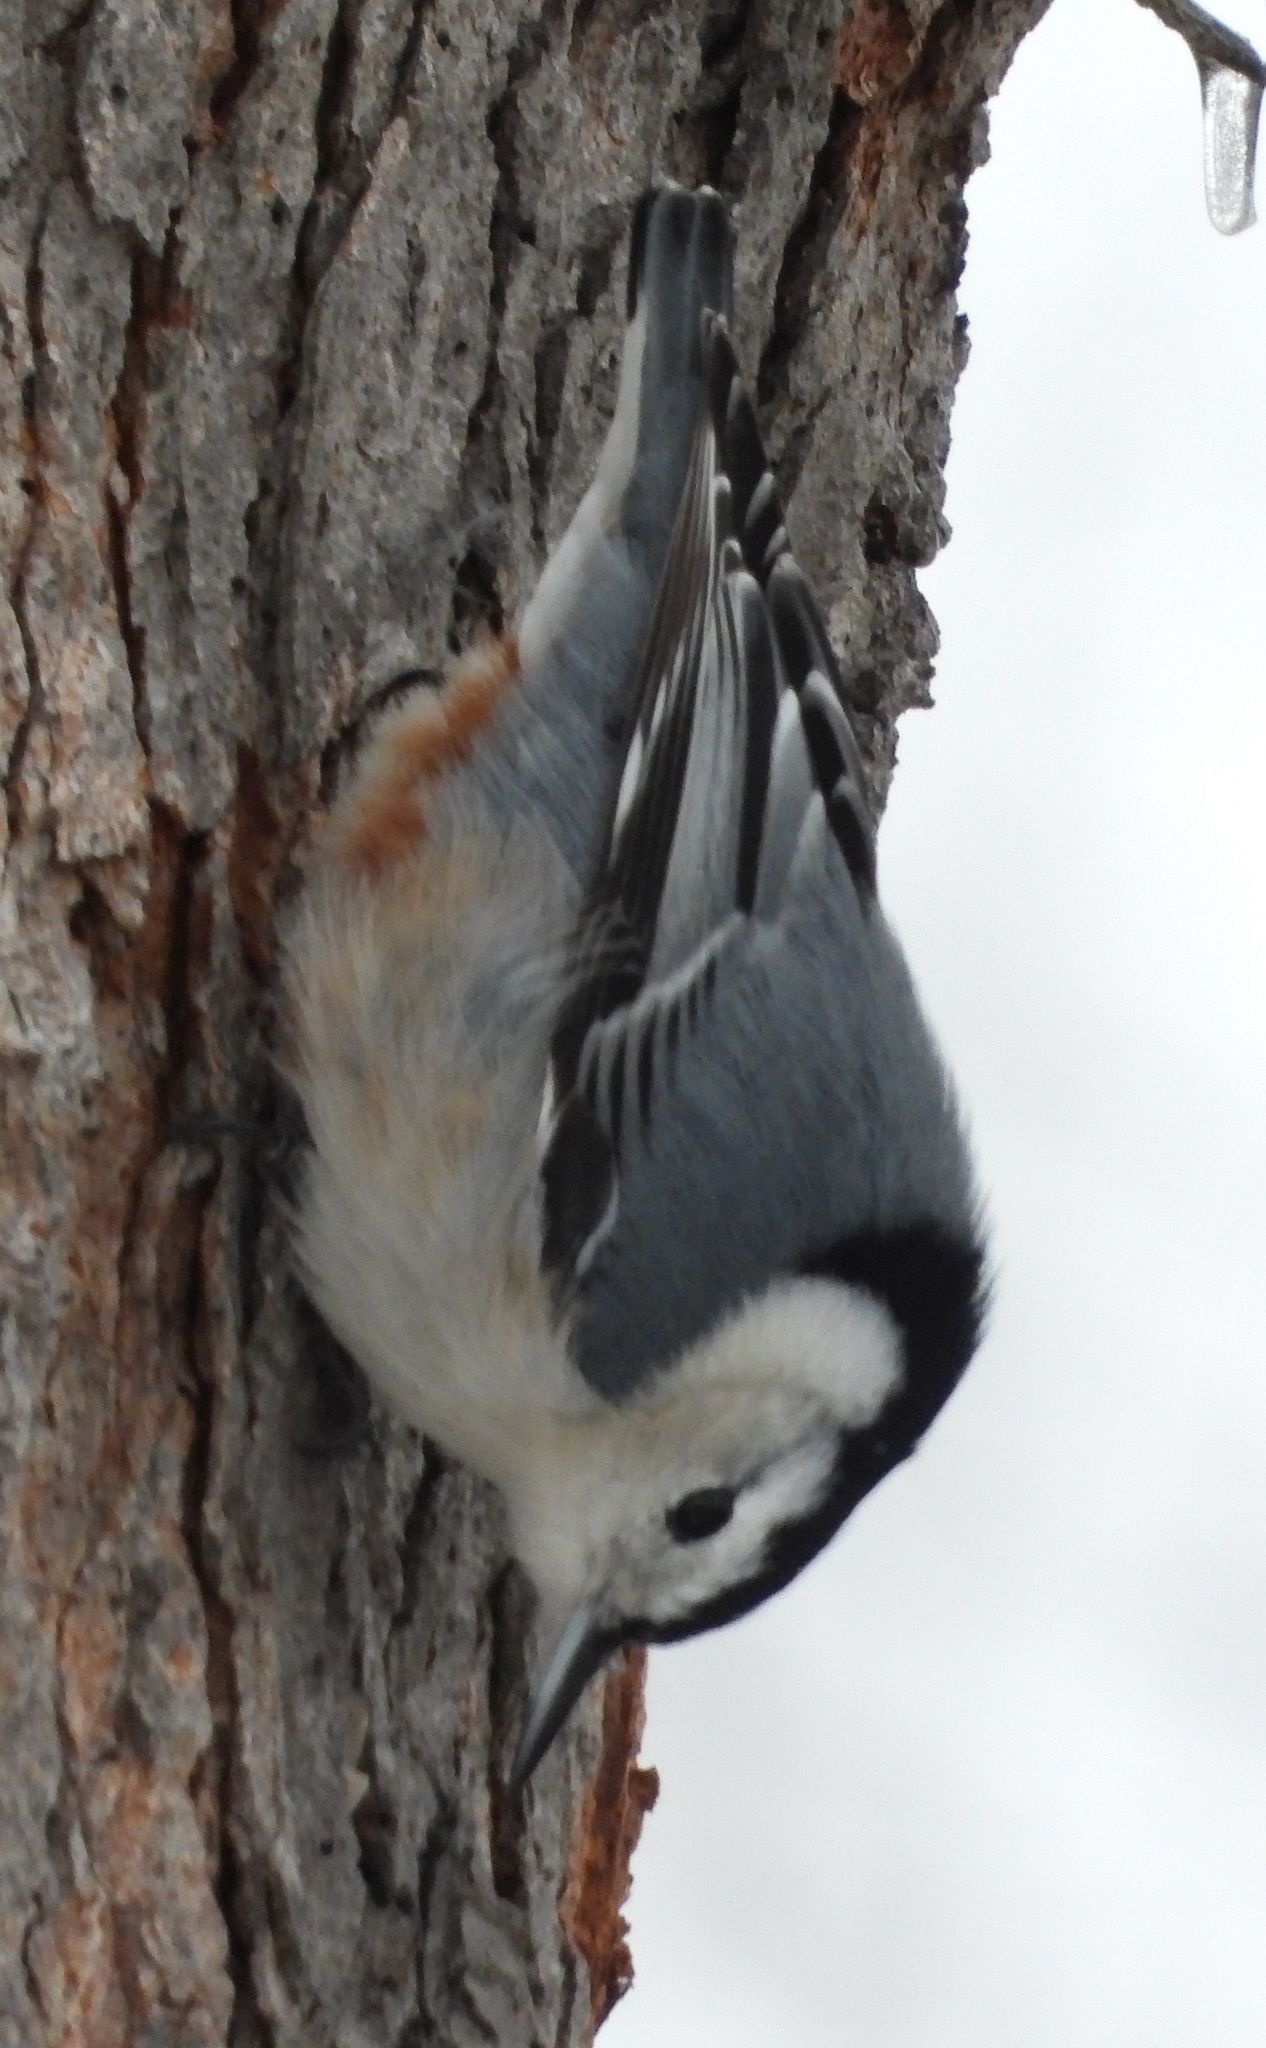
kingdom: Animalia
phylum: Chordata
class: Aves
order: Passeriformes
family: Sittidae
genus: Sitta
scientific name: Sitta carolinensis
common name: White-breasted nuthatch
